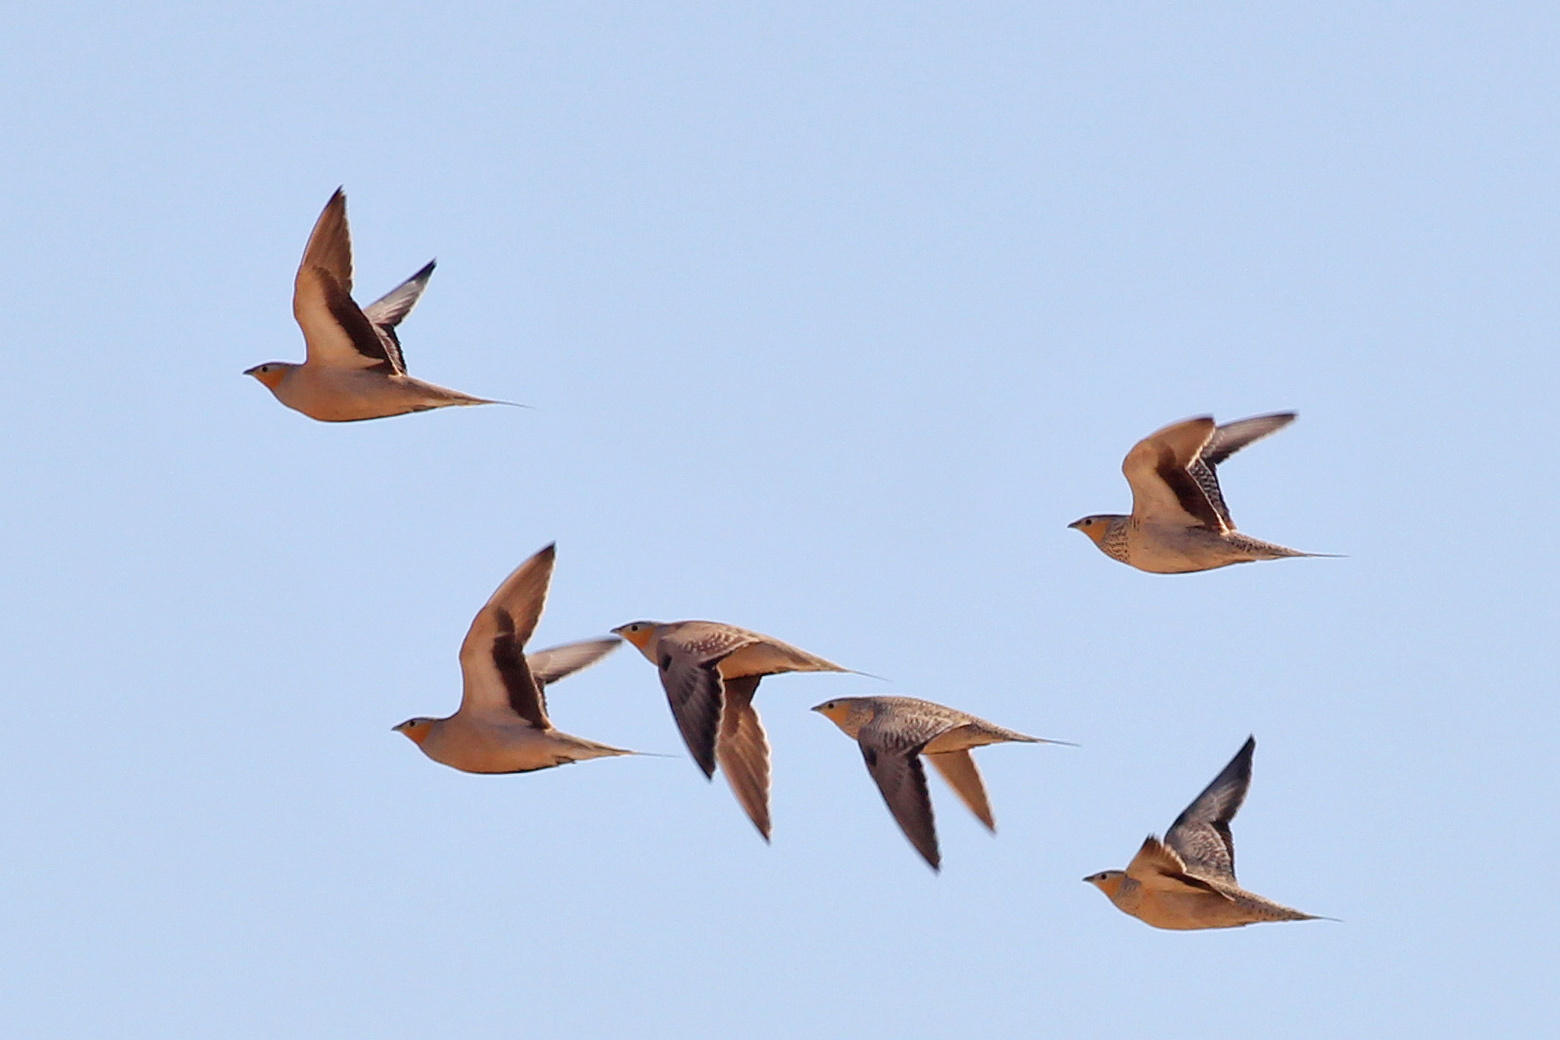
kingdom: Animalia
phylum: Chordata
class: Aves
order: Pteroclidiformes
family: Pteroclididae
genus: Pterocles
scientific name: Pterocles senegallus
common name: Spotted sandgrouse
